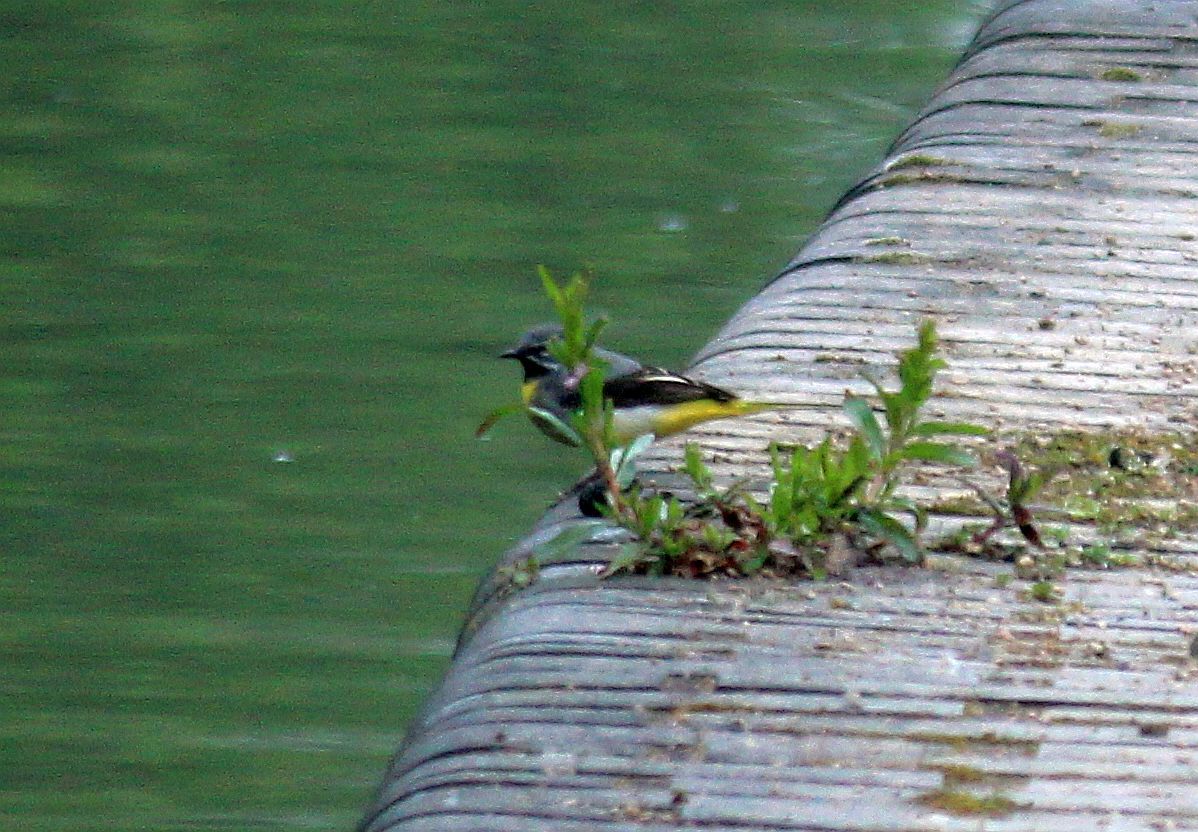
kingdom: Animalia
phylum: Chordata
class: Aves
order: Passeriformes
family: Motacillidae
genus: Motacilla
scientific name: Motacilla cinerea
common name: Grey wagtail
